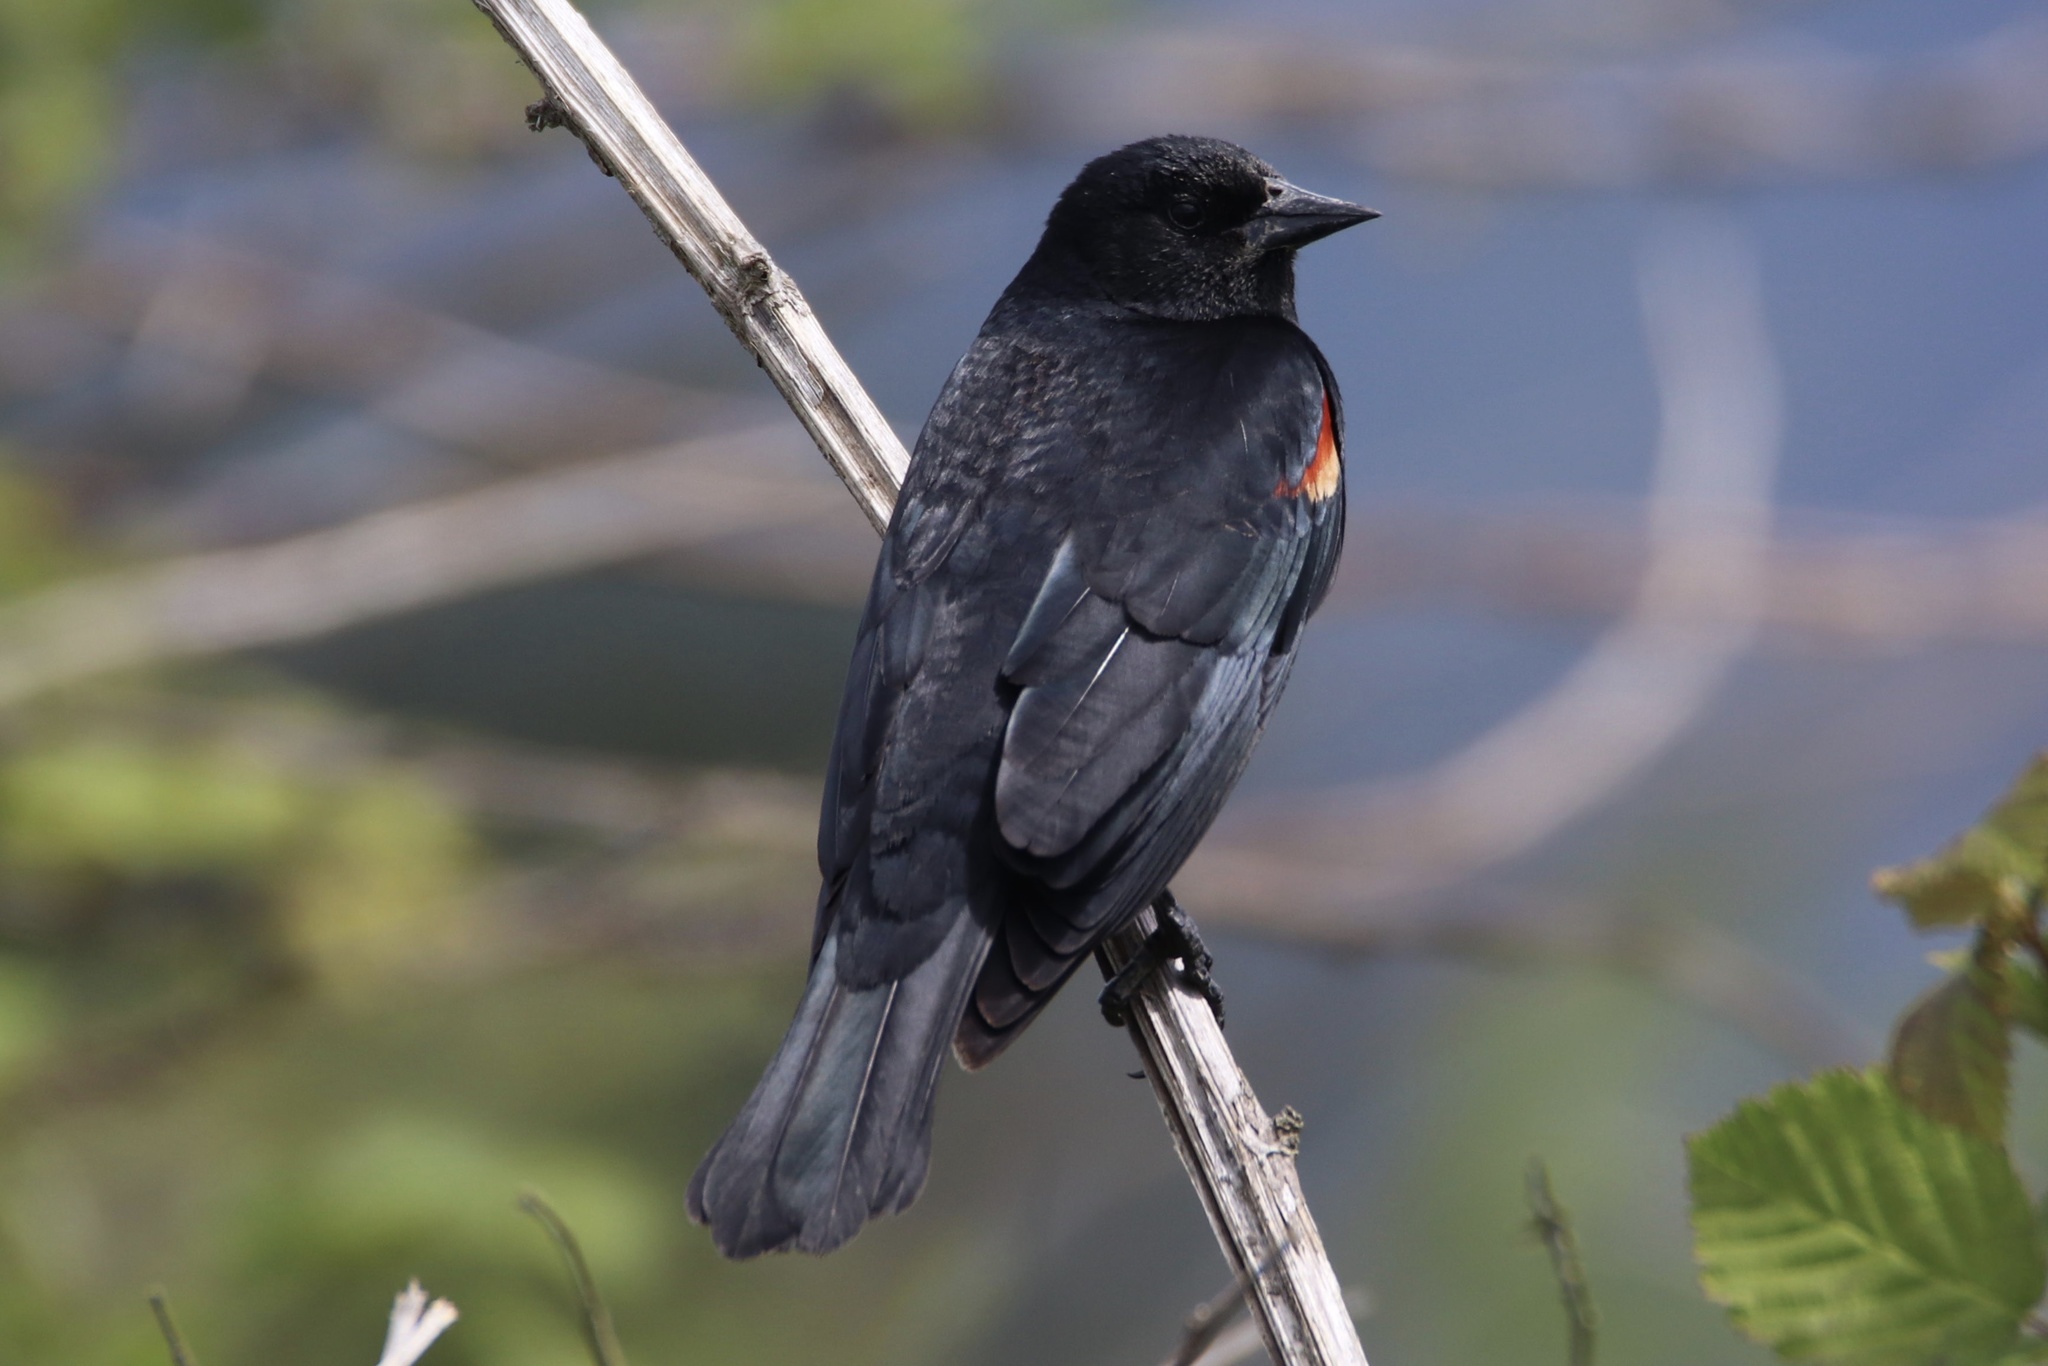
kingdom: Animalia
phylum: Chordata
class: Aves
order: Passeriformes
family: Icteridae
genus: Agelaius
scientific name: Agelaius phoeniceus
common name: Red-winged blackbird
